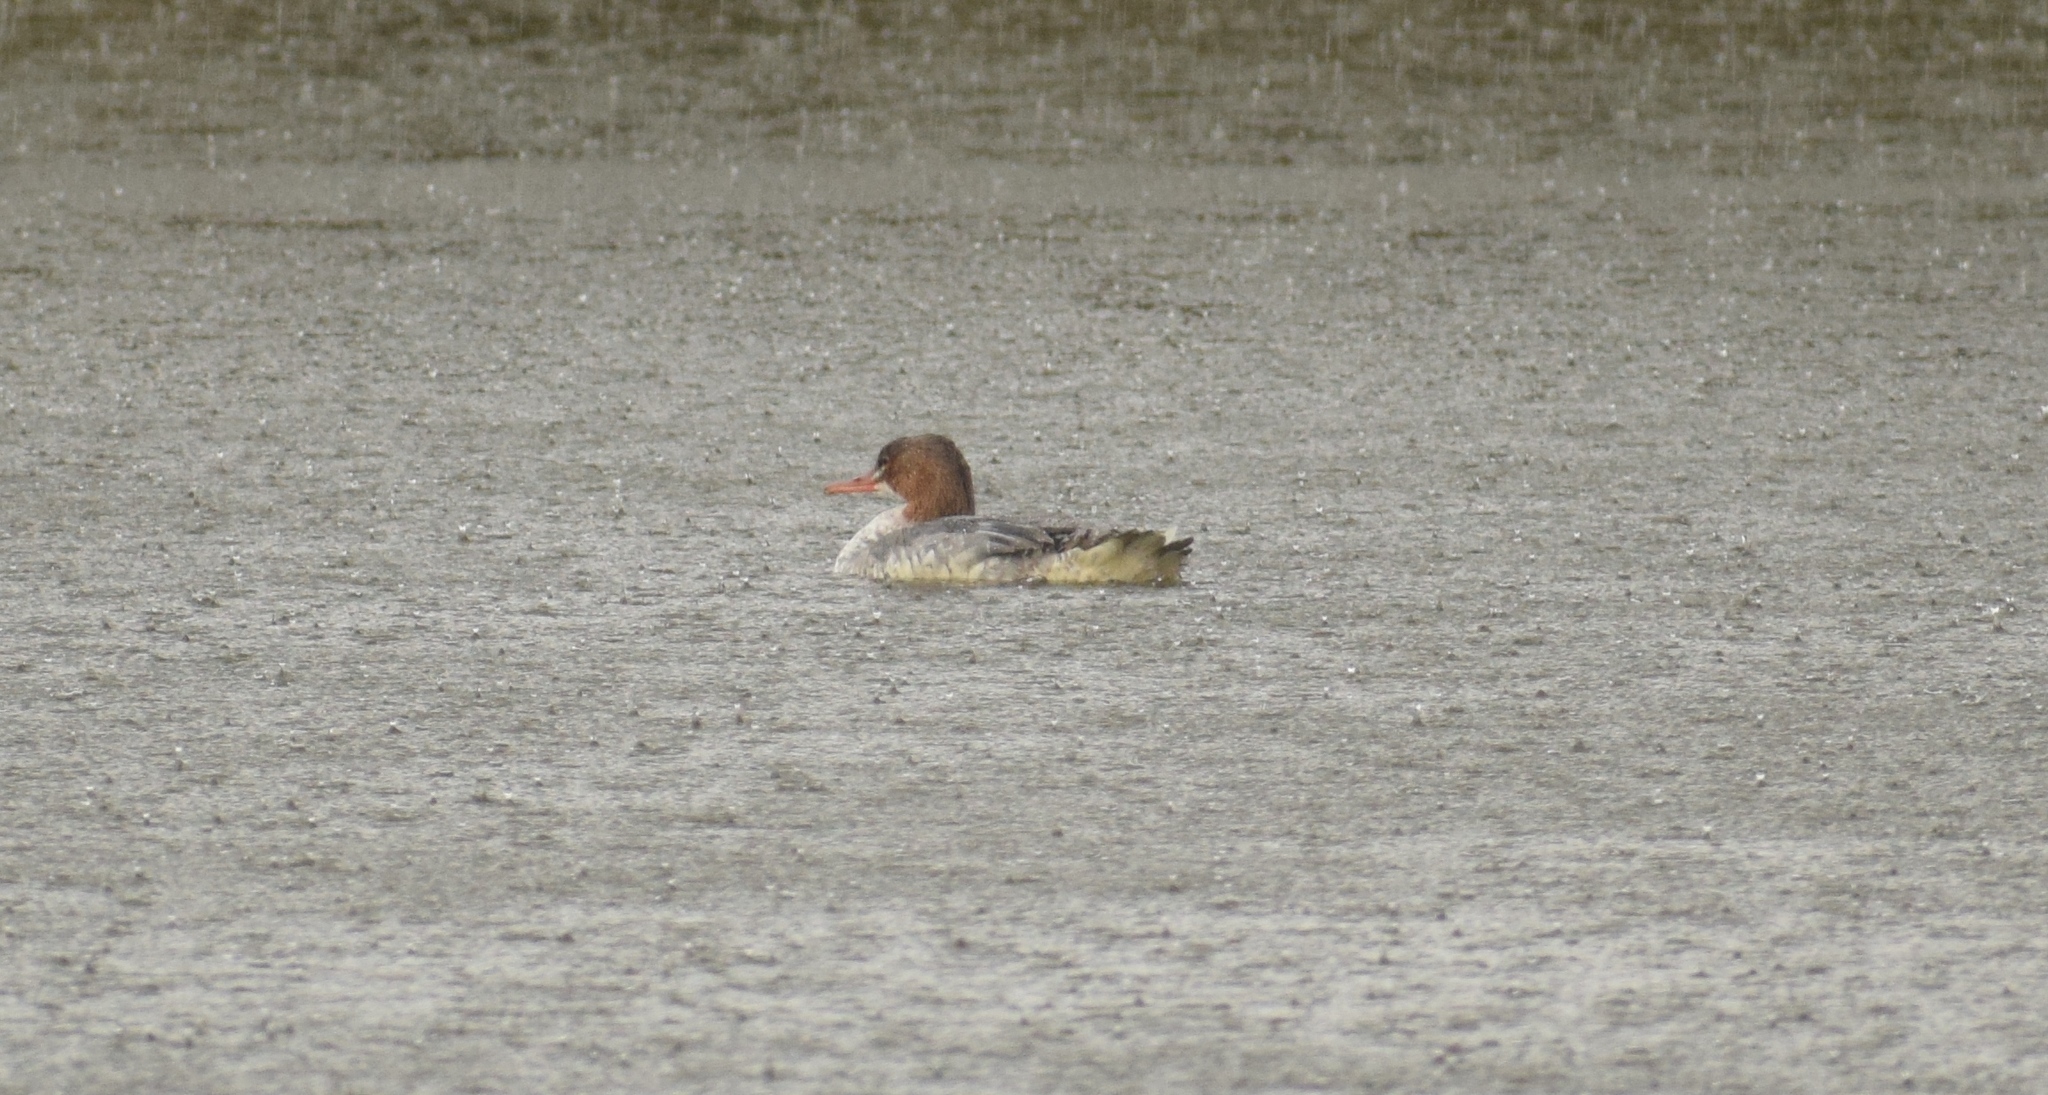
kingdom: Animalia
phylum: Chordata
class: Aves
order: Anseriformes
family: Anatidae
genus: Mergus
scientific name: Mergus merganser
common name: Common merganser
